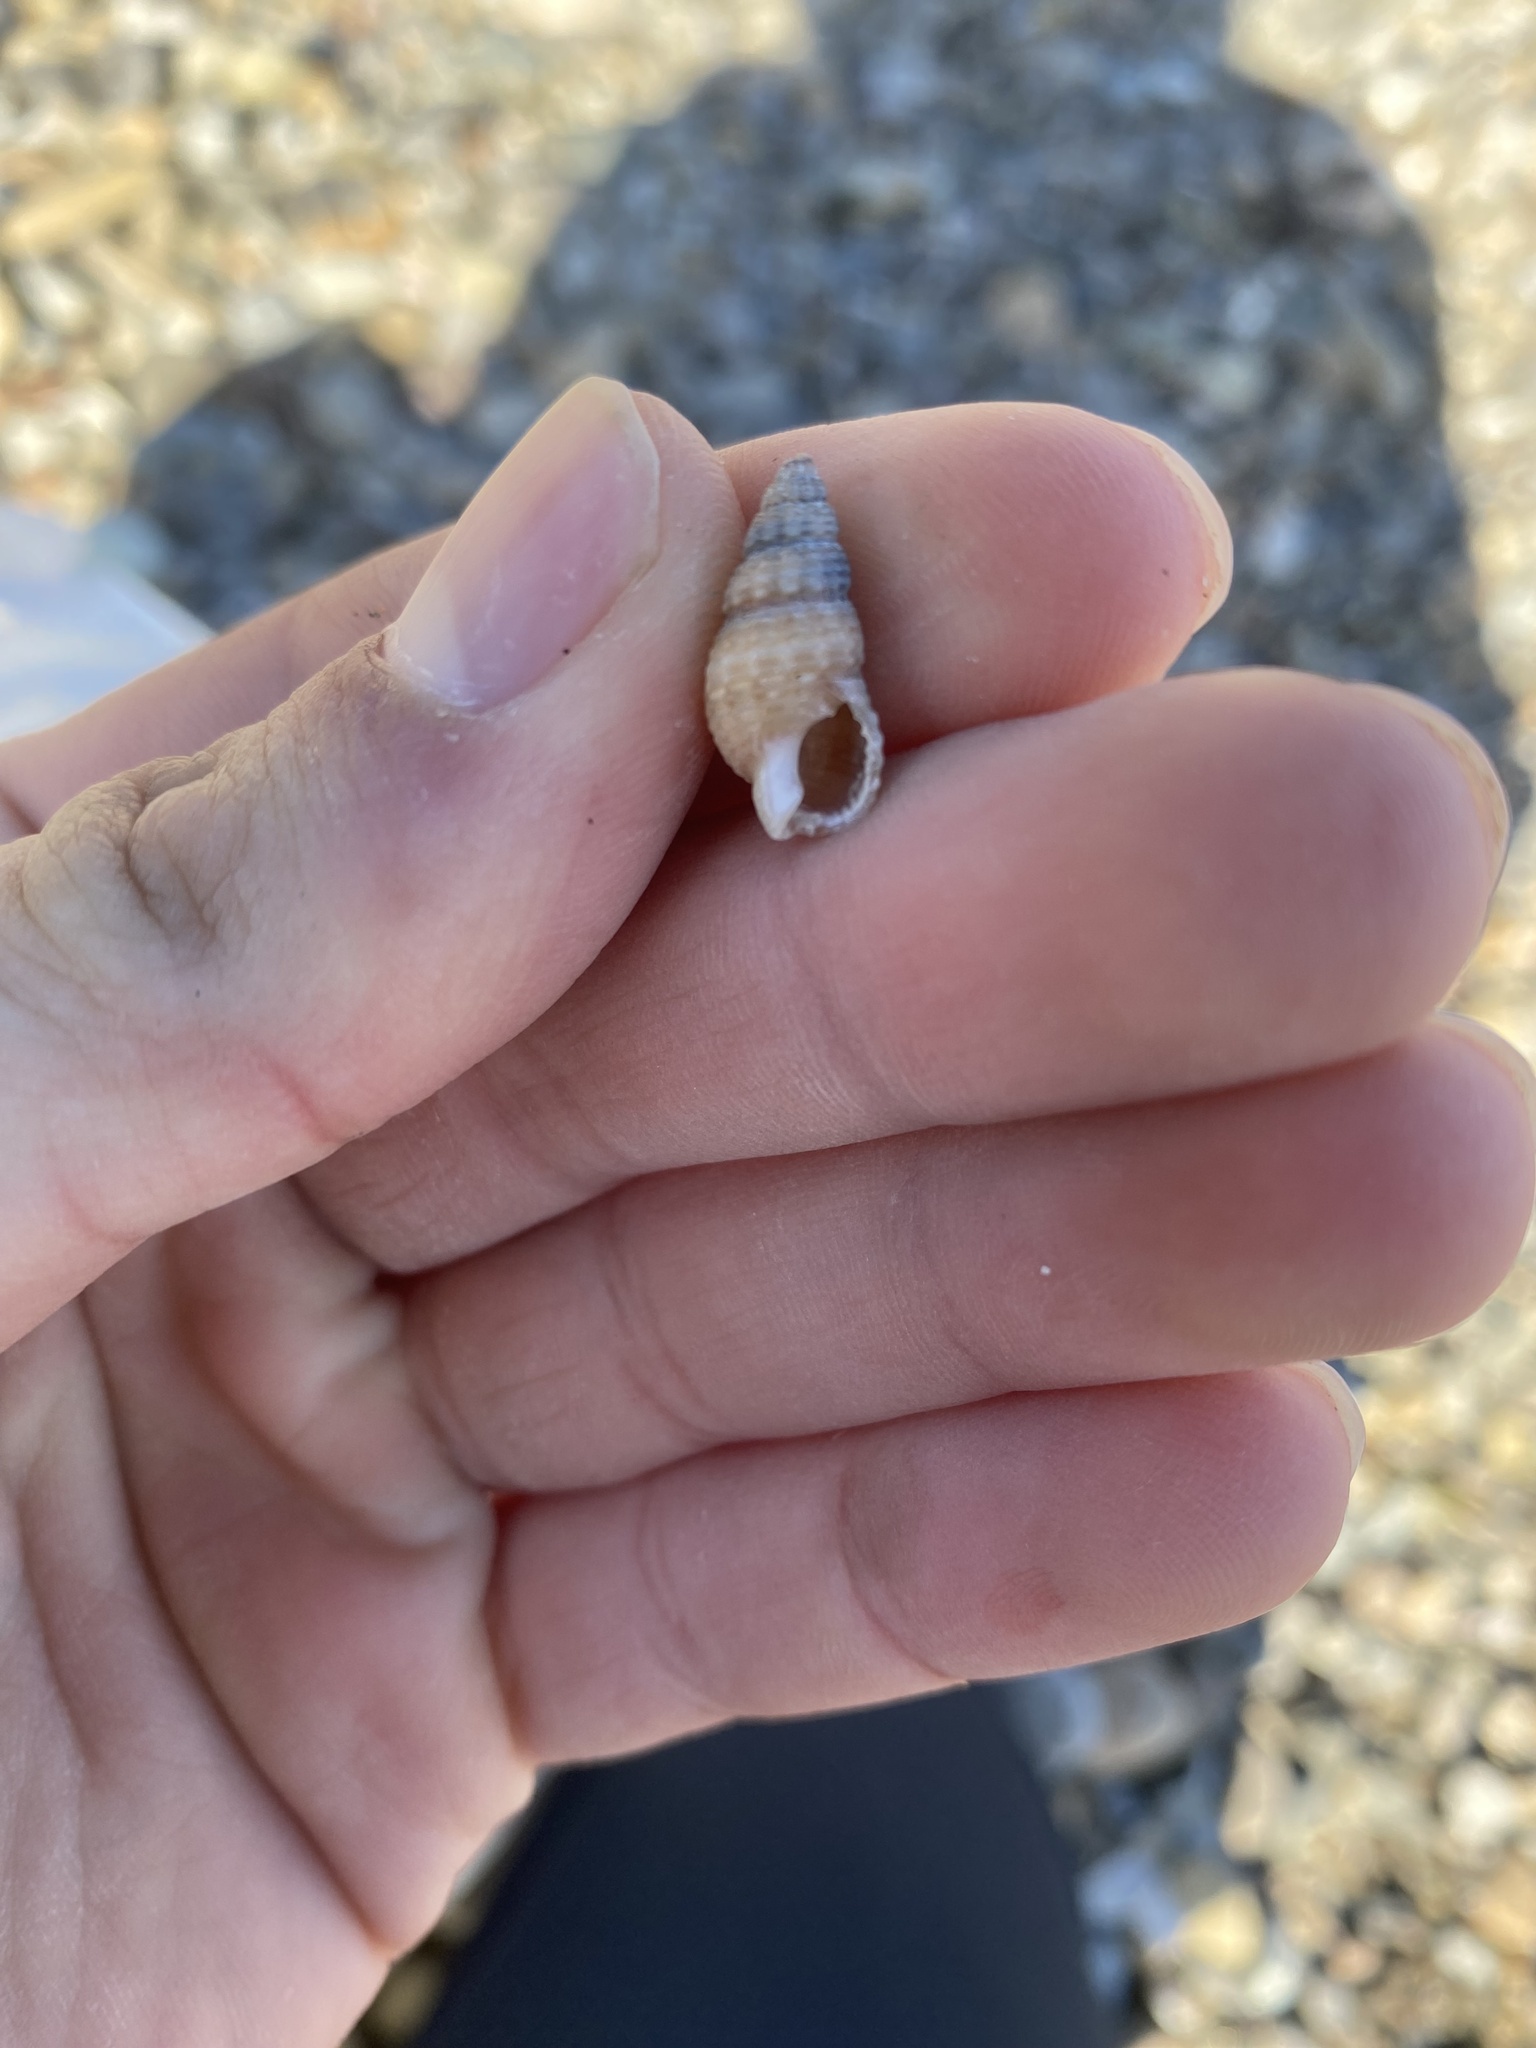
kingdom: Animalia
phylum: Mollusca
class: Gastropoda
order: Neogastropoda
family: Nassariidae
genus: Nassarius
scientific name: Nassarius mendicus
